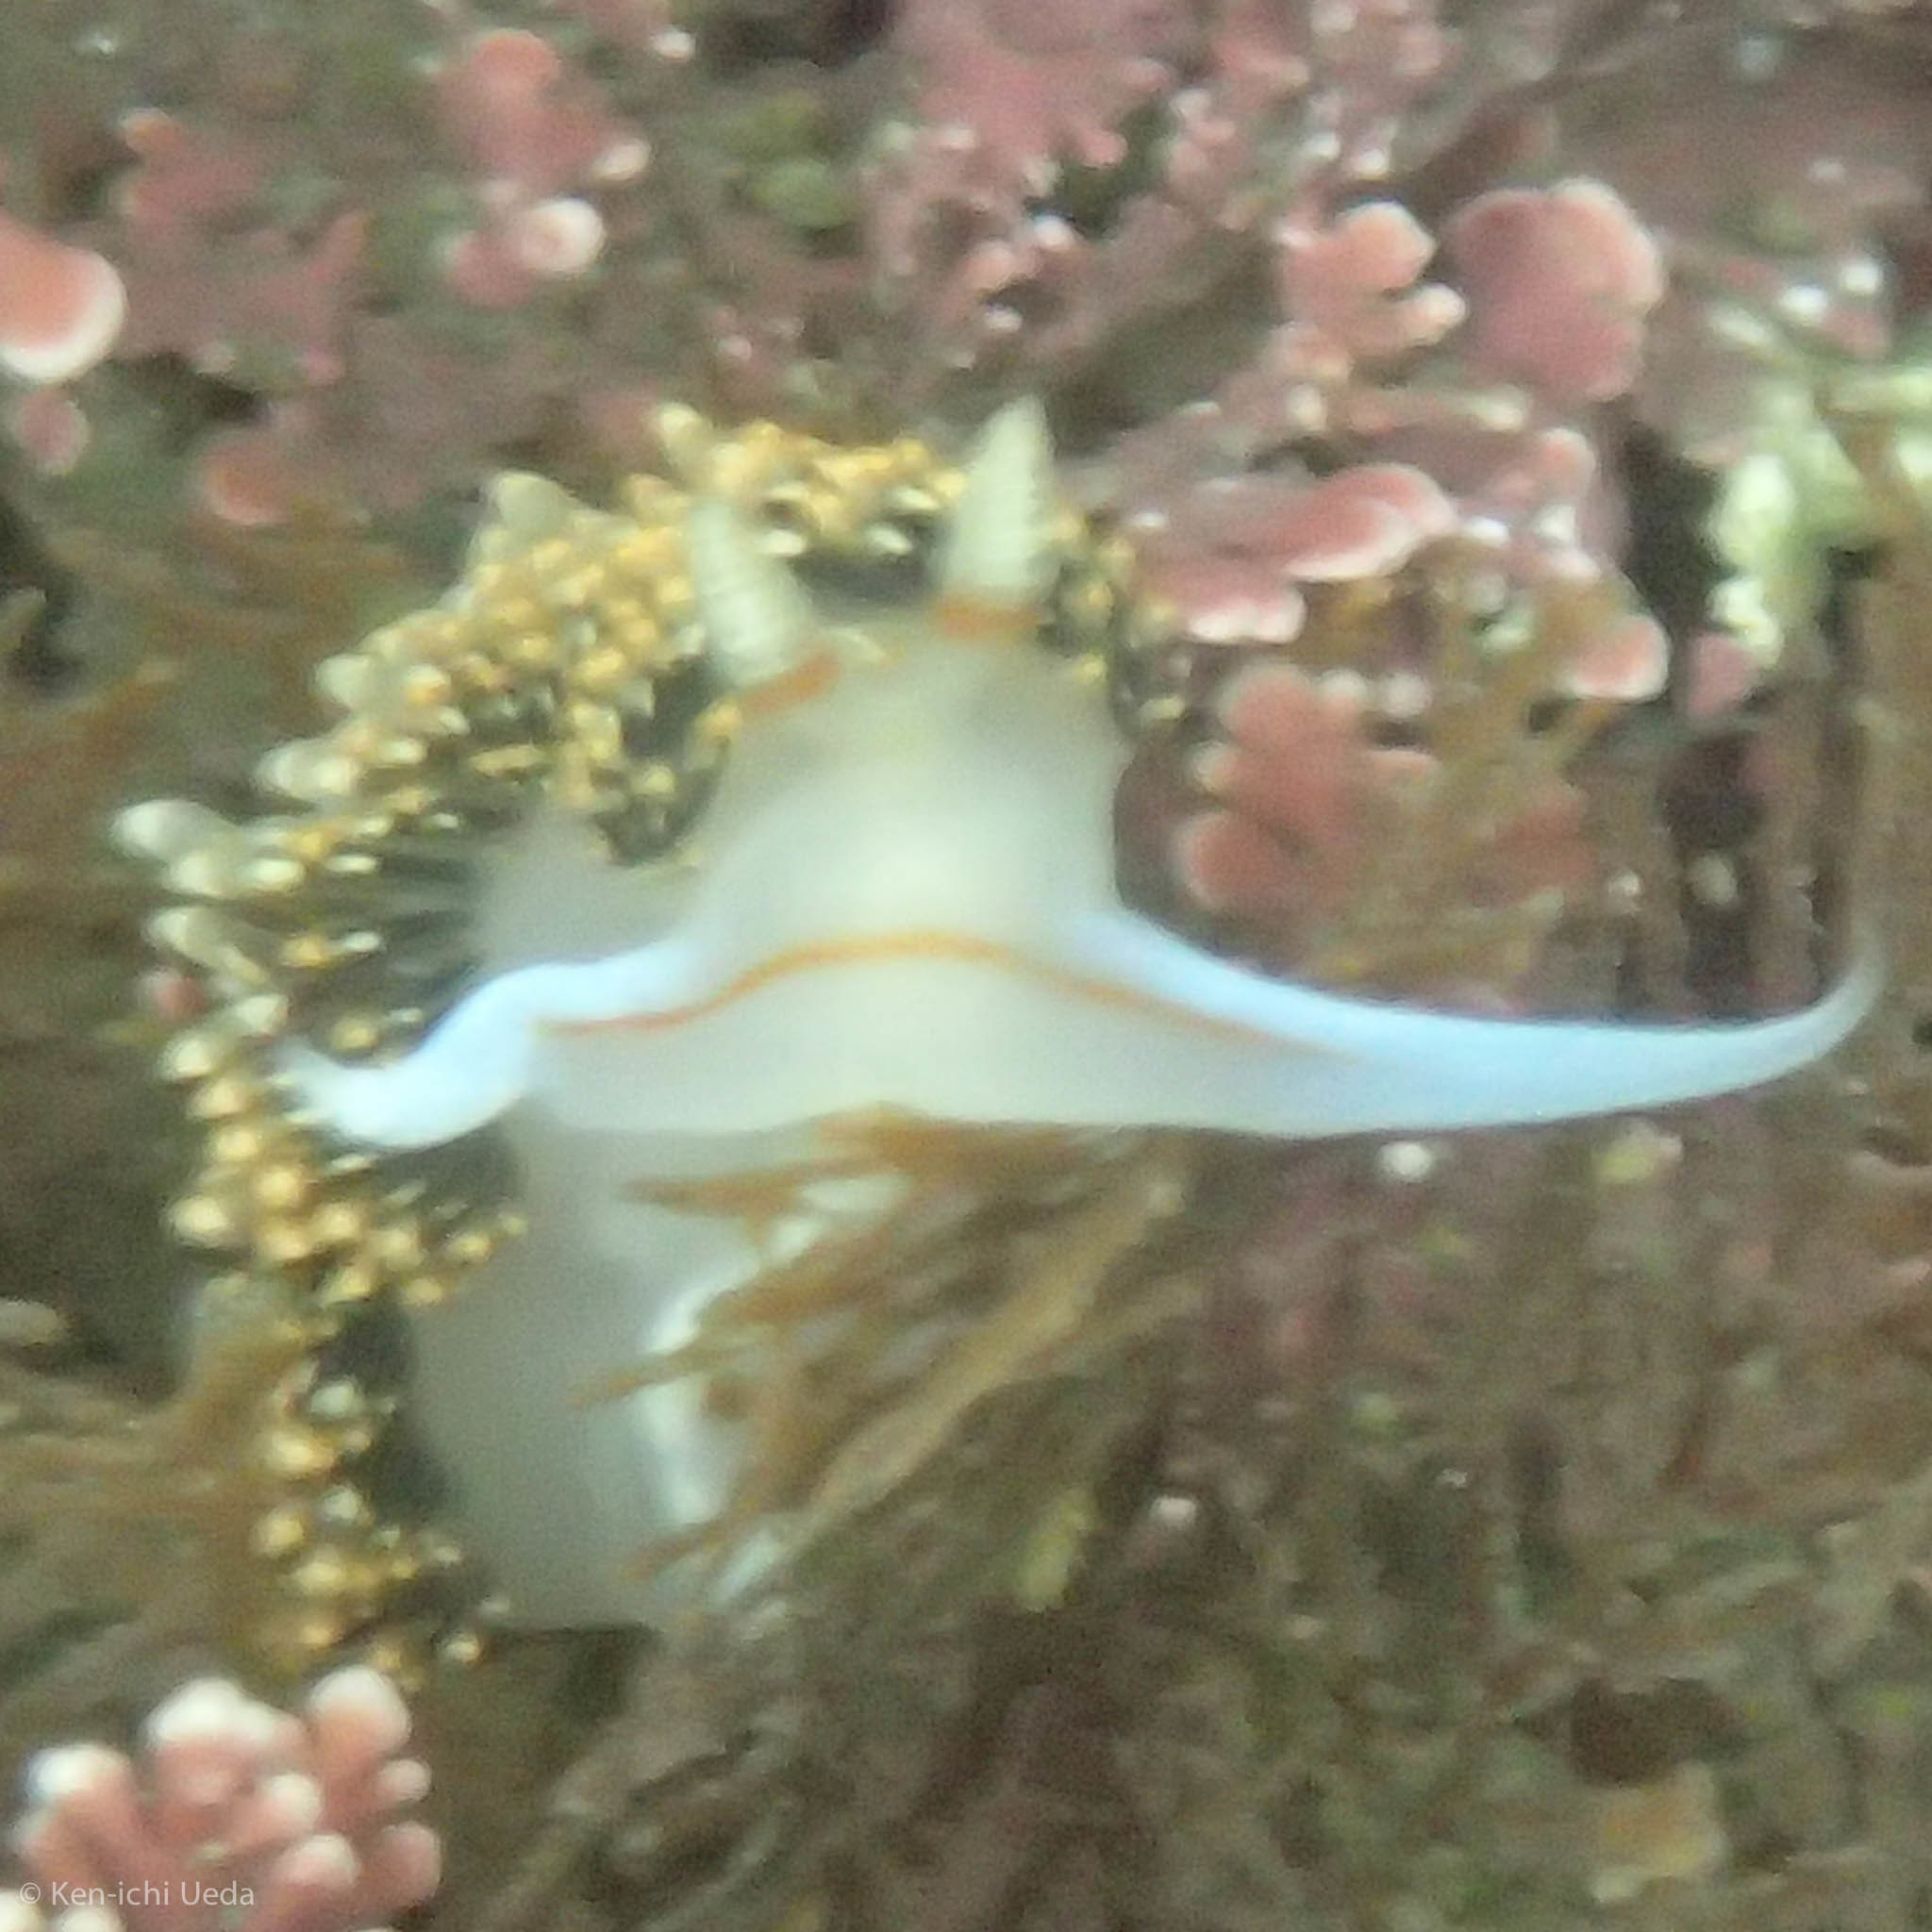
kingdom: Animalia
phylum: Mollusca
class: Gastropoda
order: Nudibranchia
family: Facelinidae
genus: Phidiana
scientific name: Phidiana hiltoni
